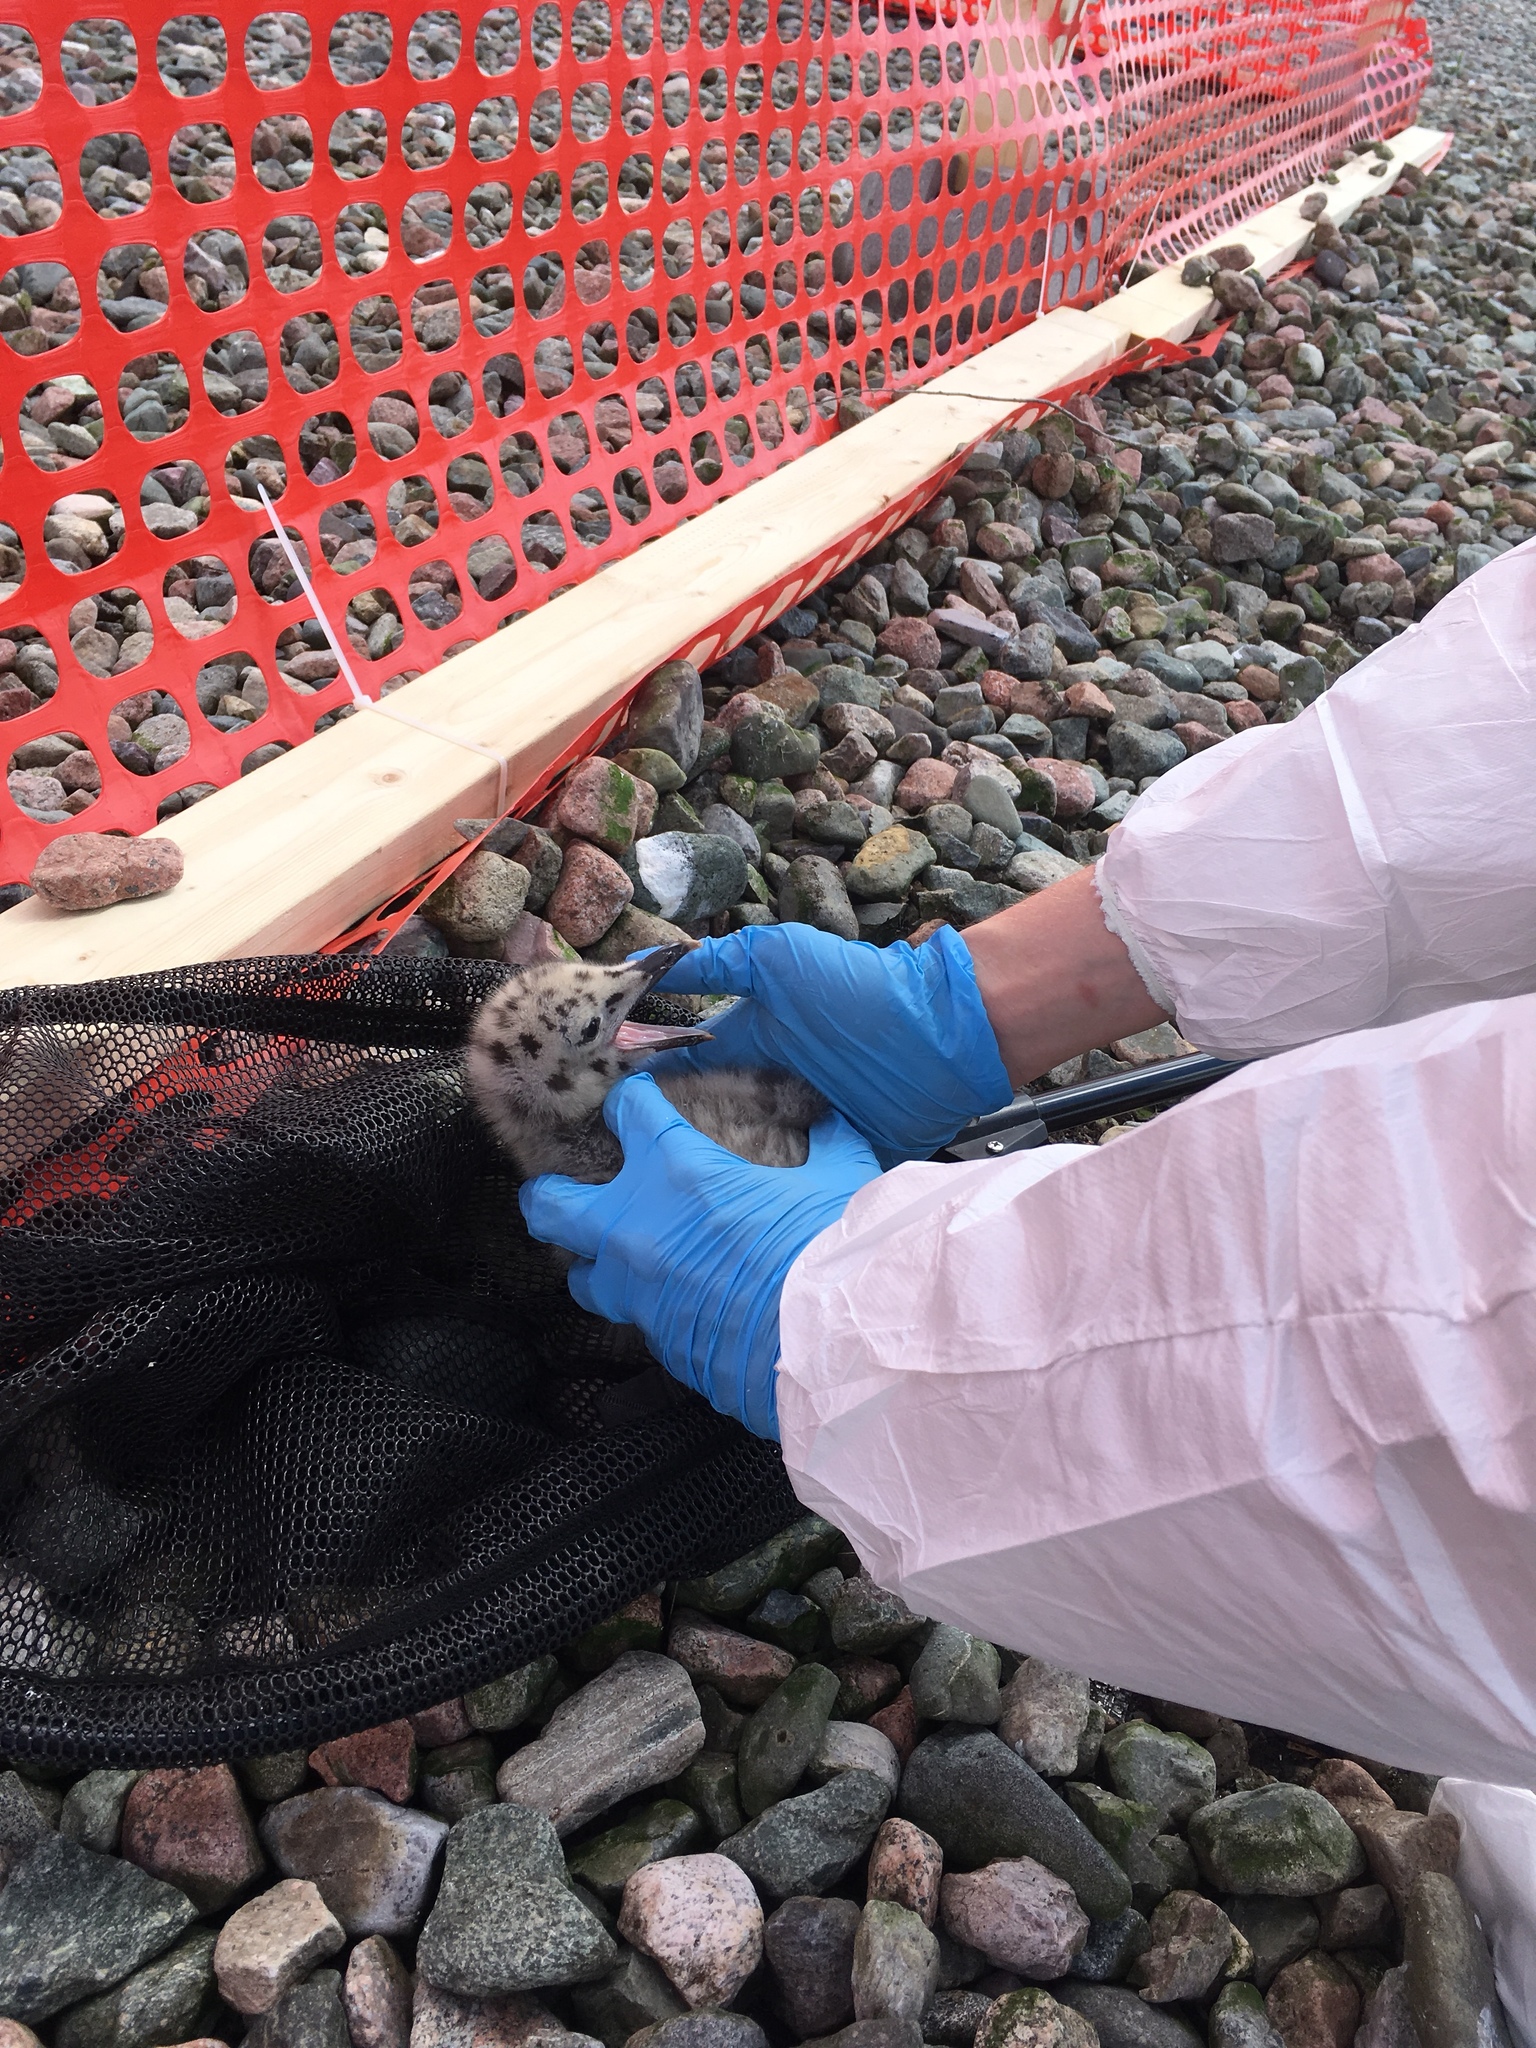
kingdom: Animalia
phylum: Chordata
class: Aves
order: Charadriiformes
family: Laridae
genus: Larus
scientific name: Larus argentatus
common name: Herring gull
